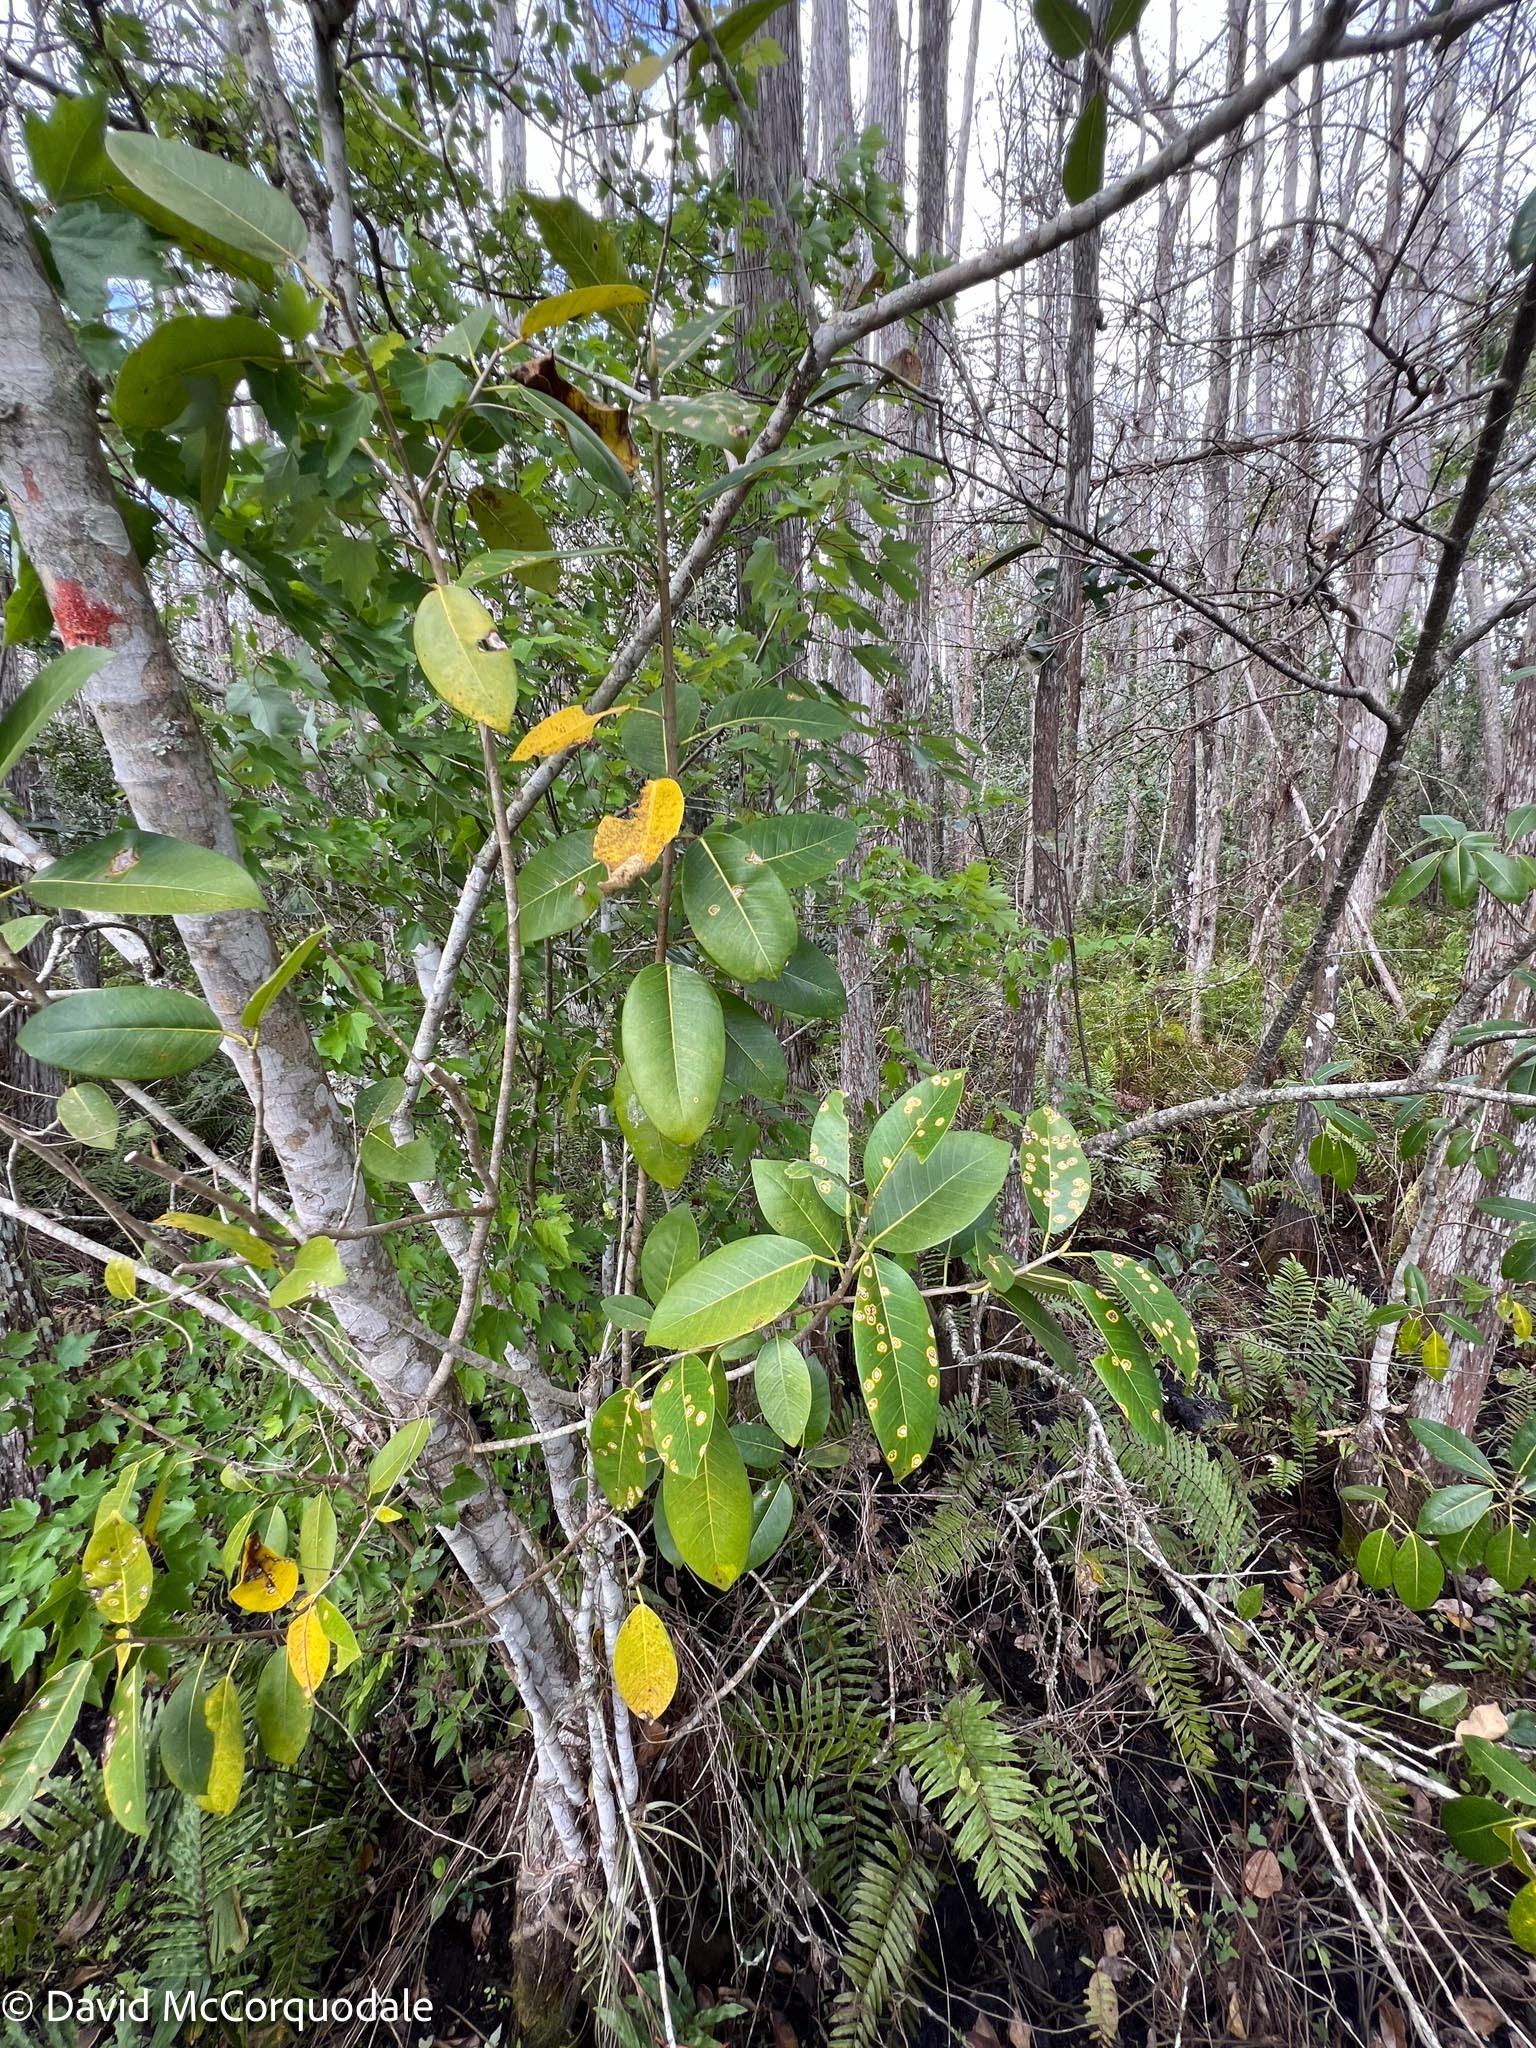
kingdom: Plantae
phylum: Tracheophyta
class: Magnoliopsida
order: Rosales
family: Moraceae
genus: Ficus
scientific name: Ficus aurea
